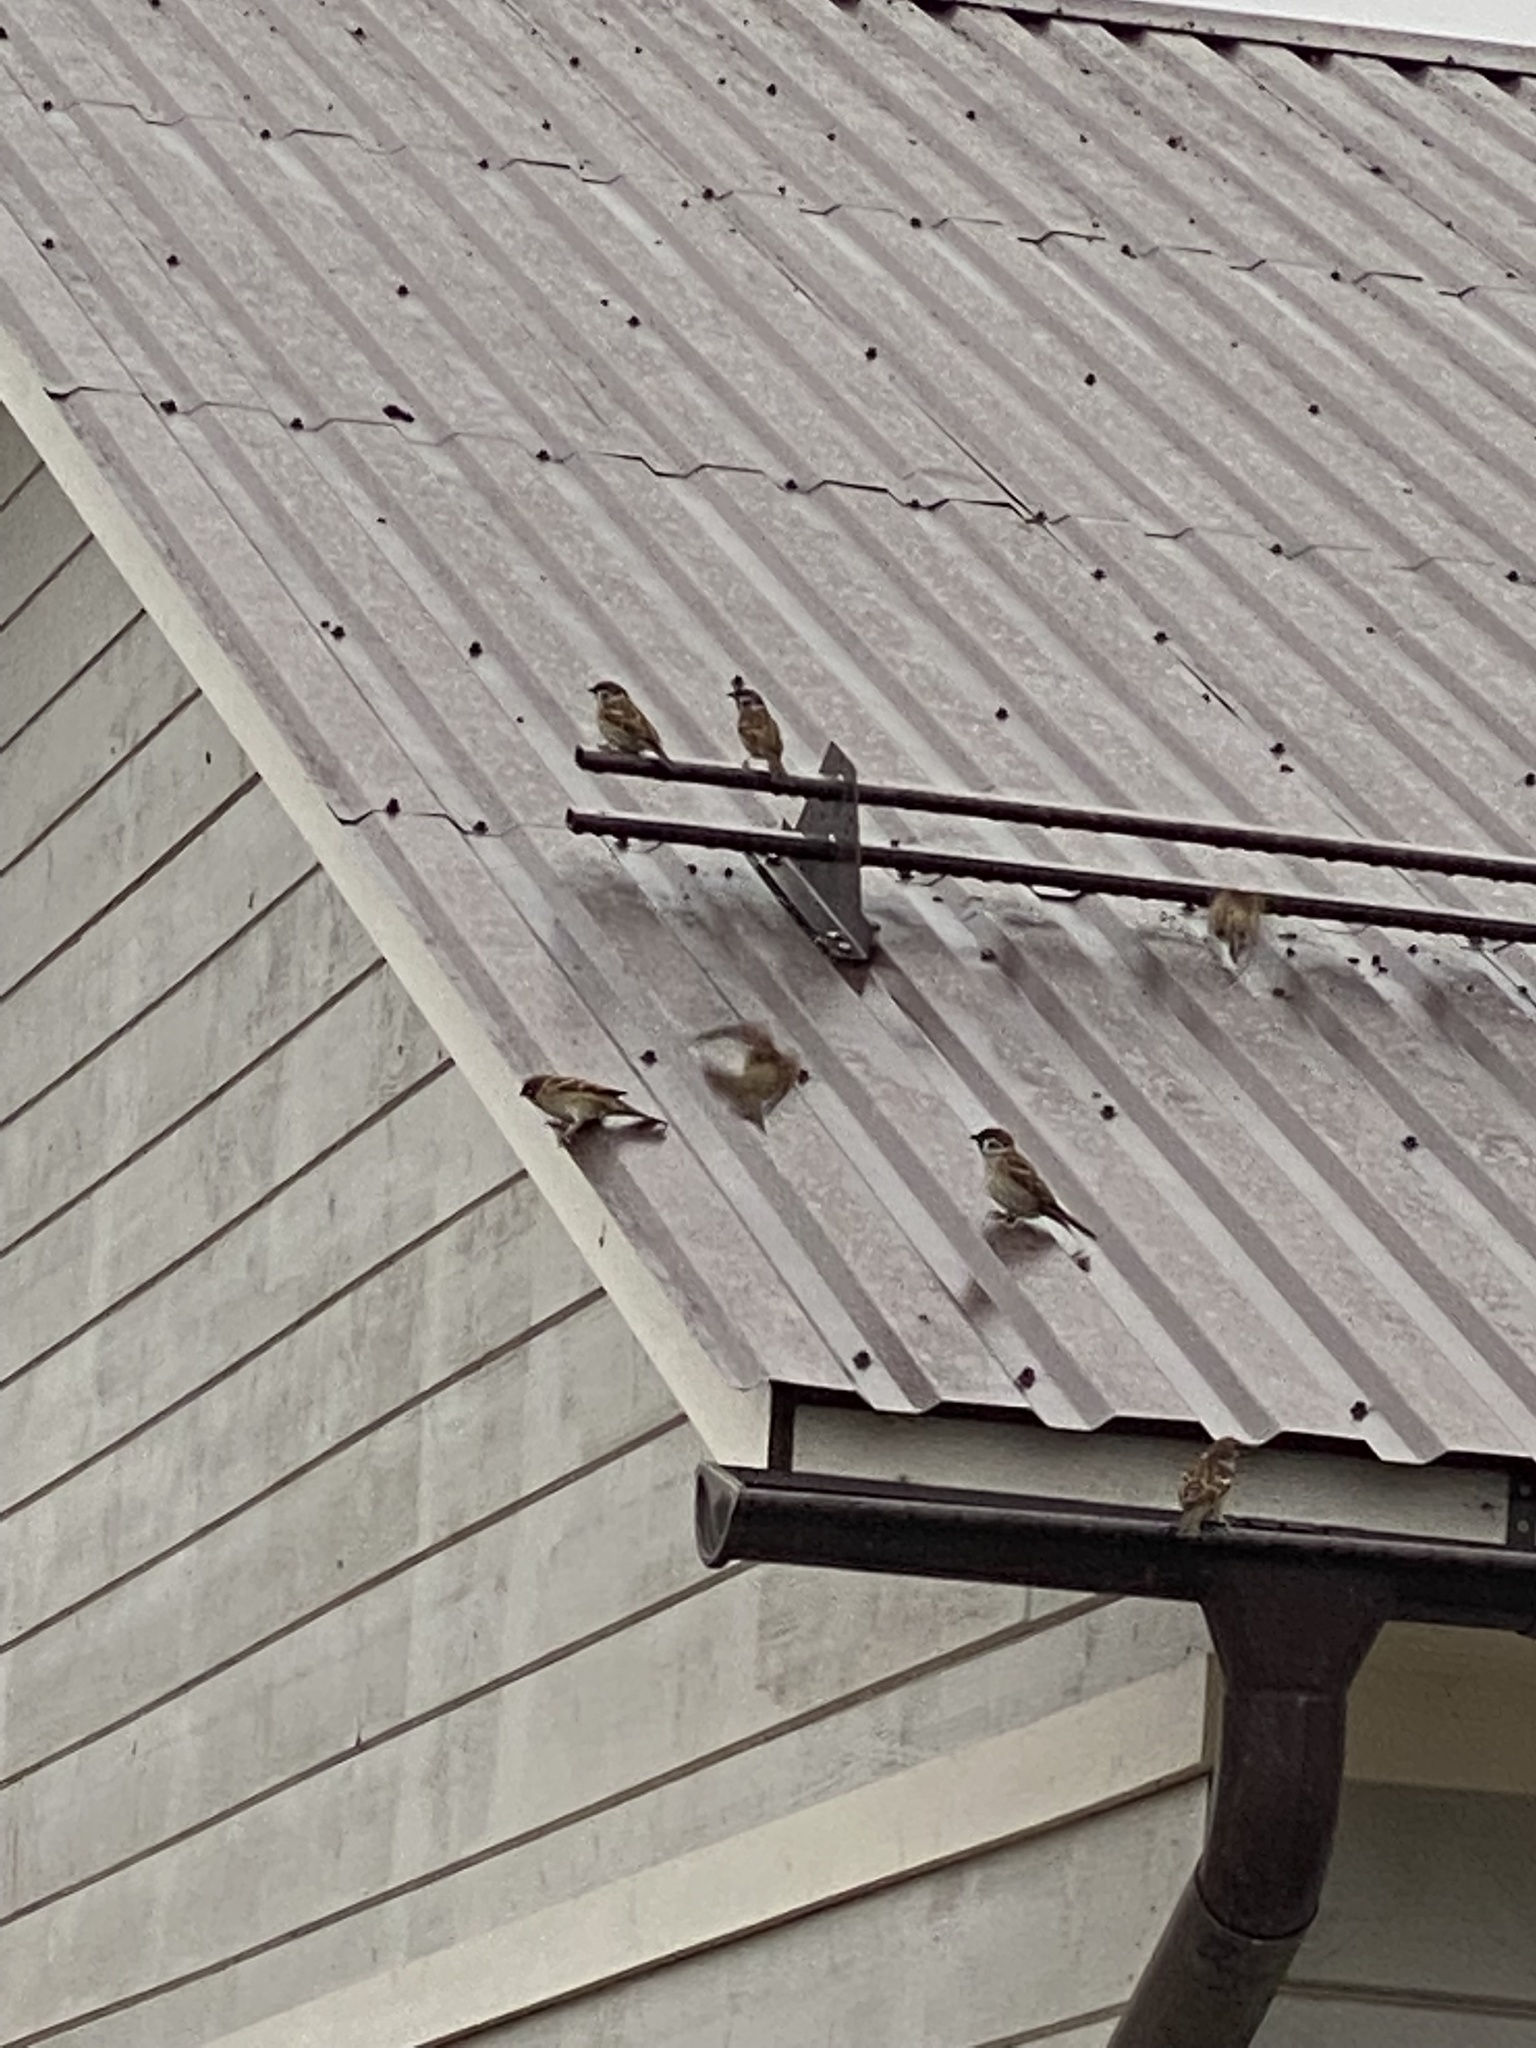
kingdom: Animalia
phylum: Chordata
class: Aves
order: Passeriformes
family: Passeridae
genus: Passer
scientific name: Passer montanus
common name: Eurasian tree sparrow
